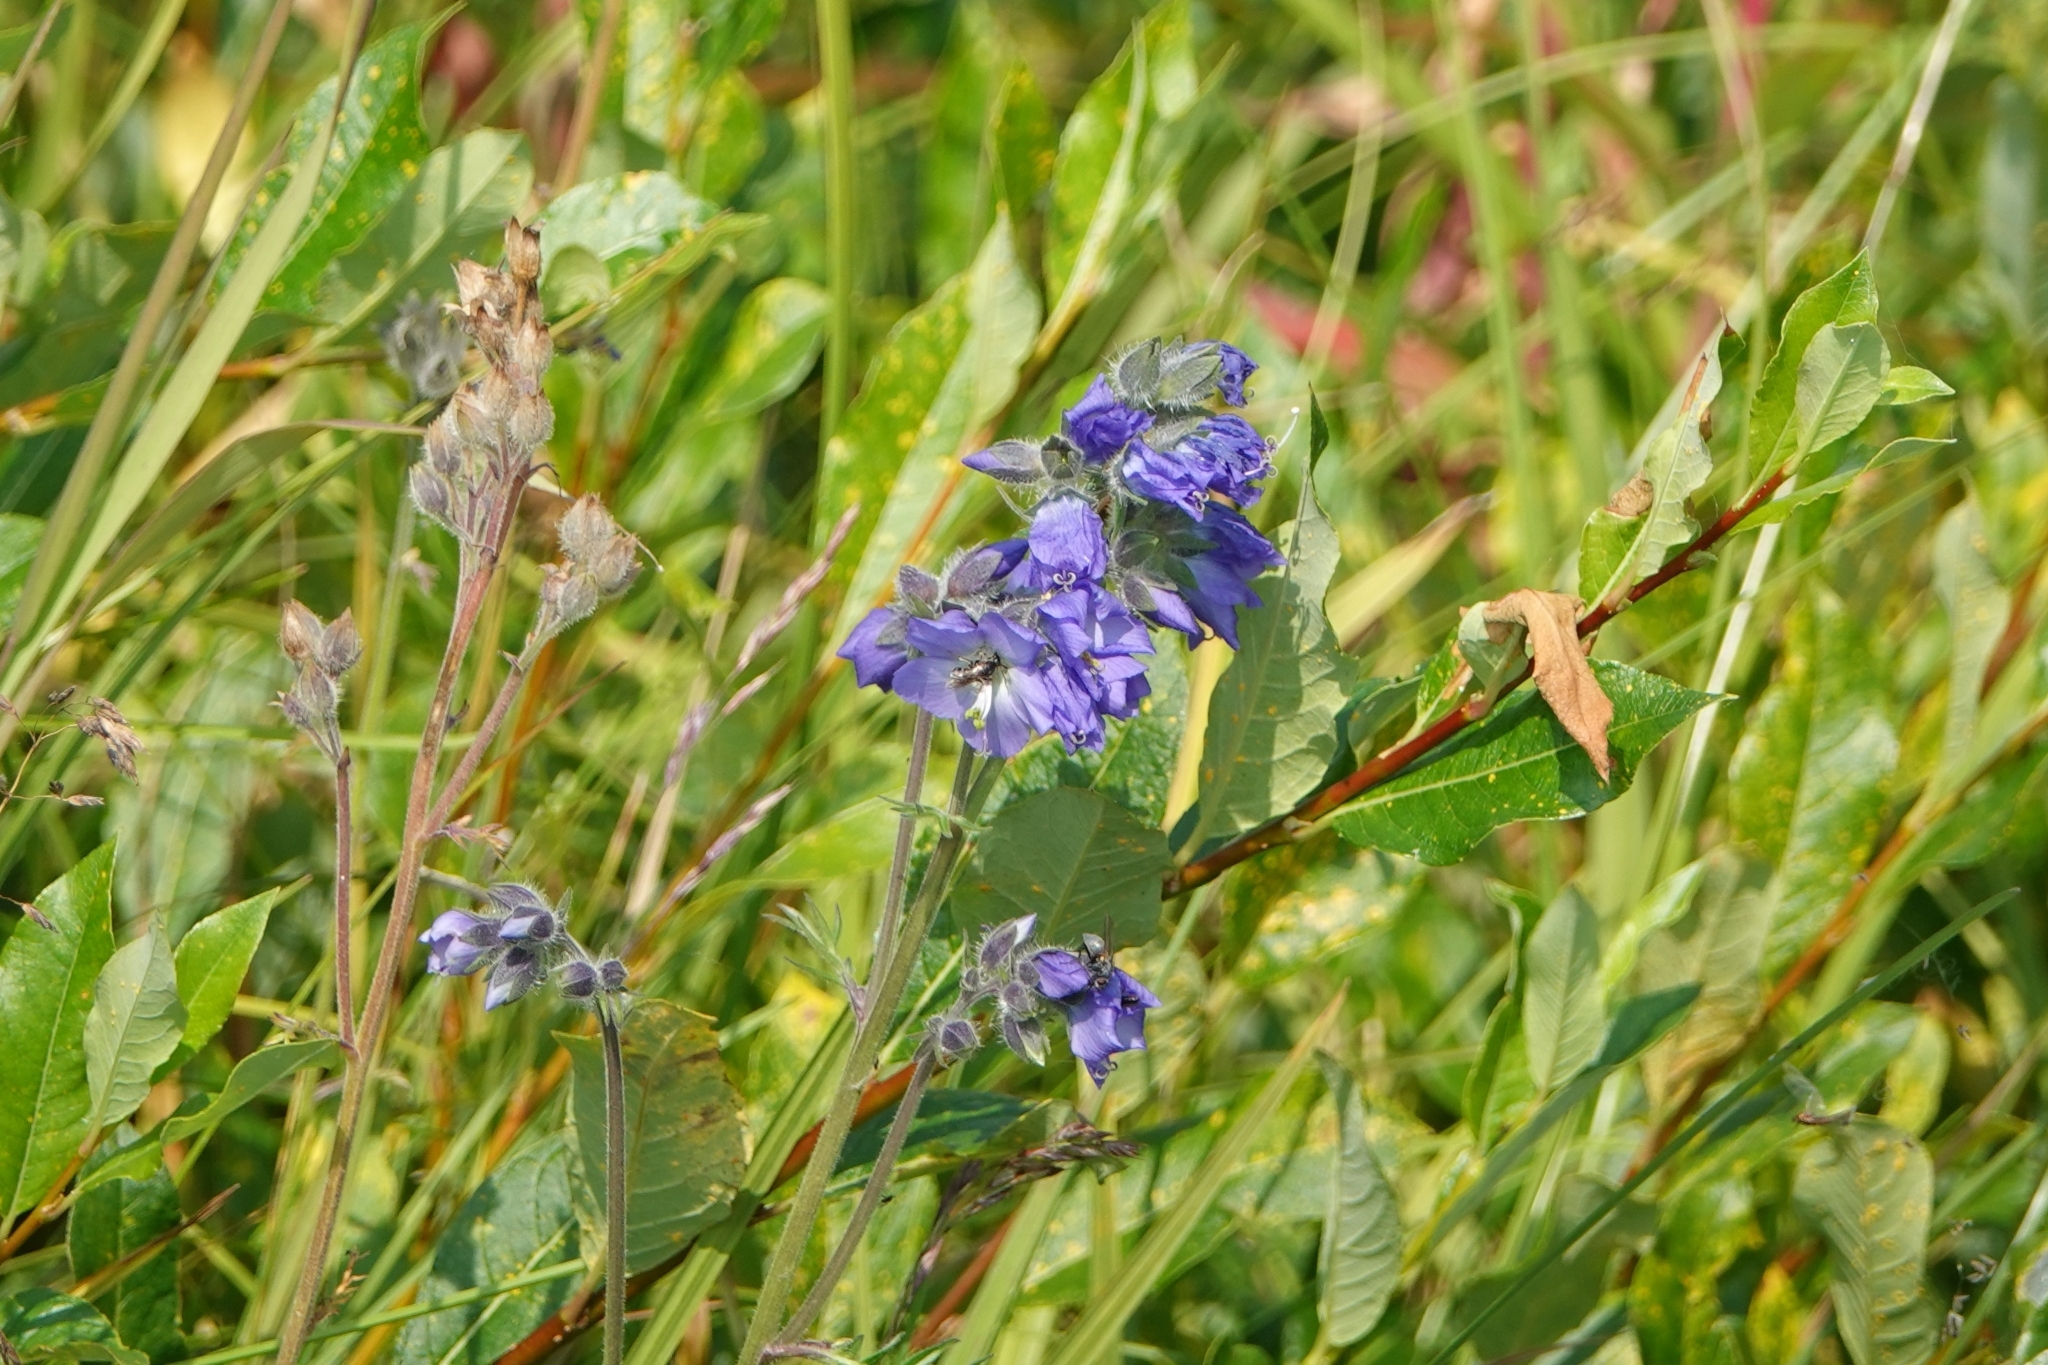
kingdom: Plantae
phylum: Tracheophyta
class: Magnoliopsida
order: Ericales
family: Polemoniaceae
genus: Polemonium
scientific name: Polemonium acutiflorum
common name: Tall jacob's-ladder
